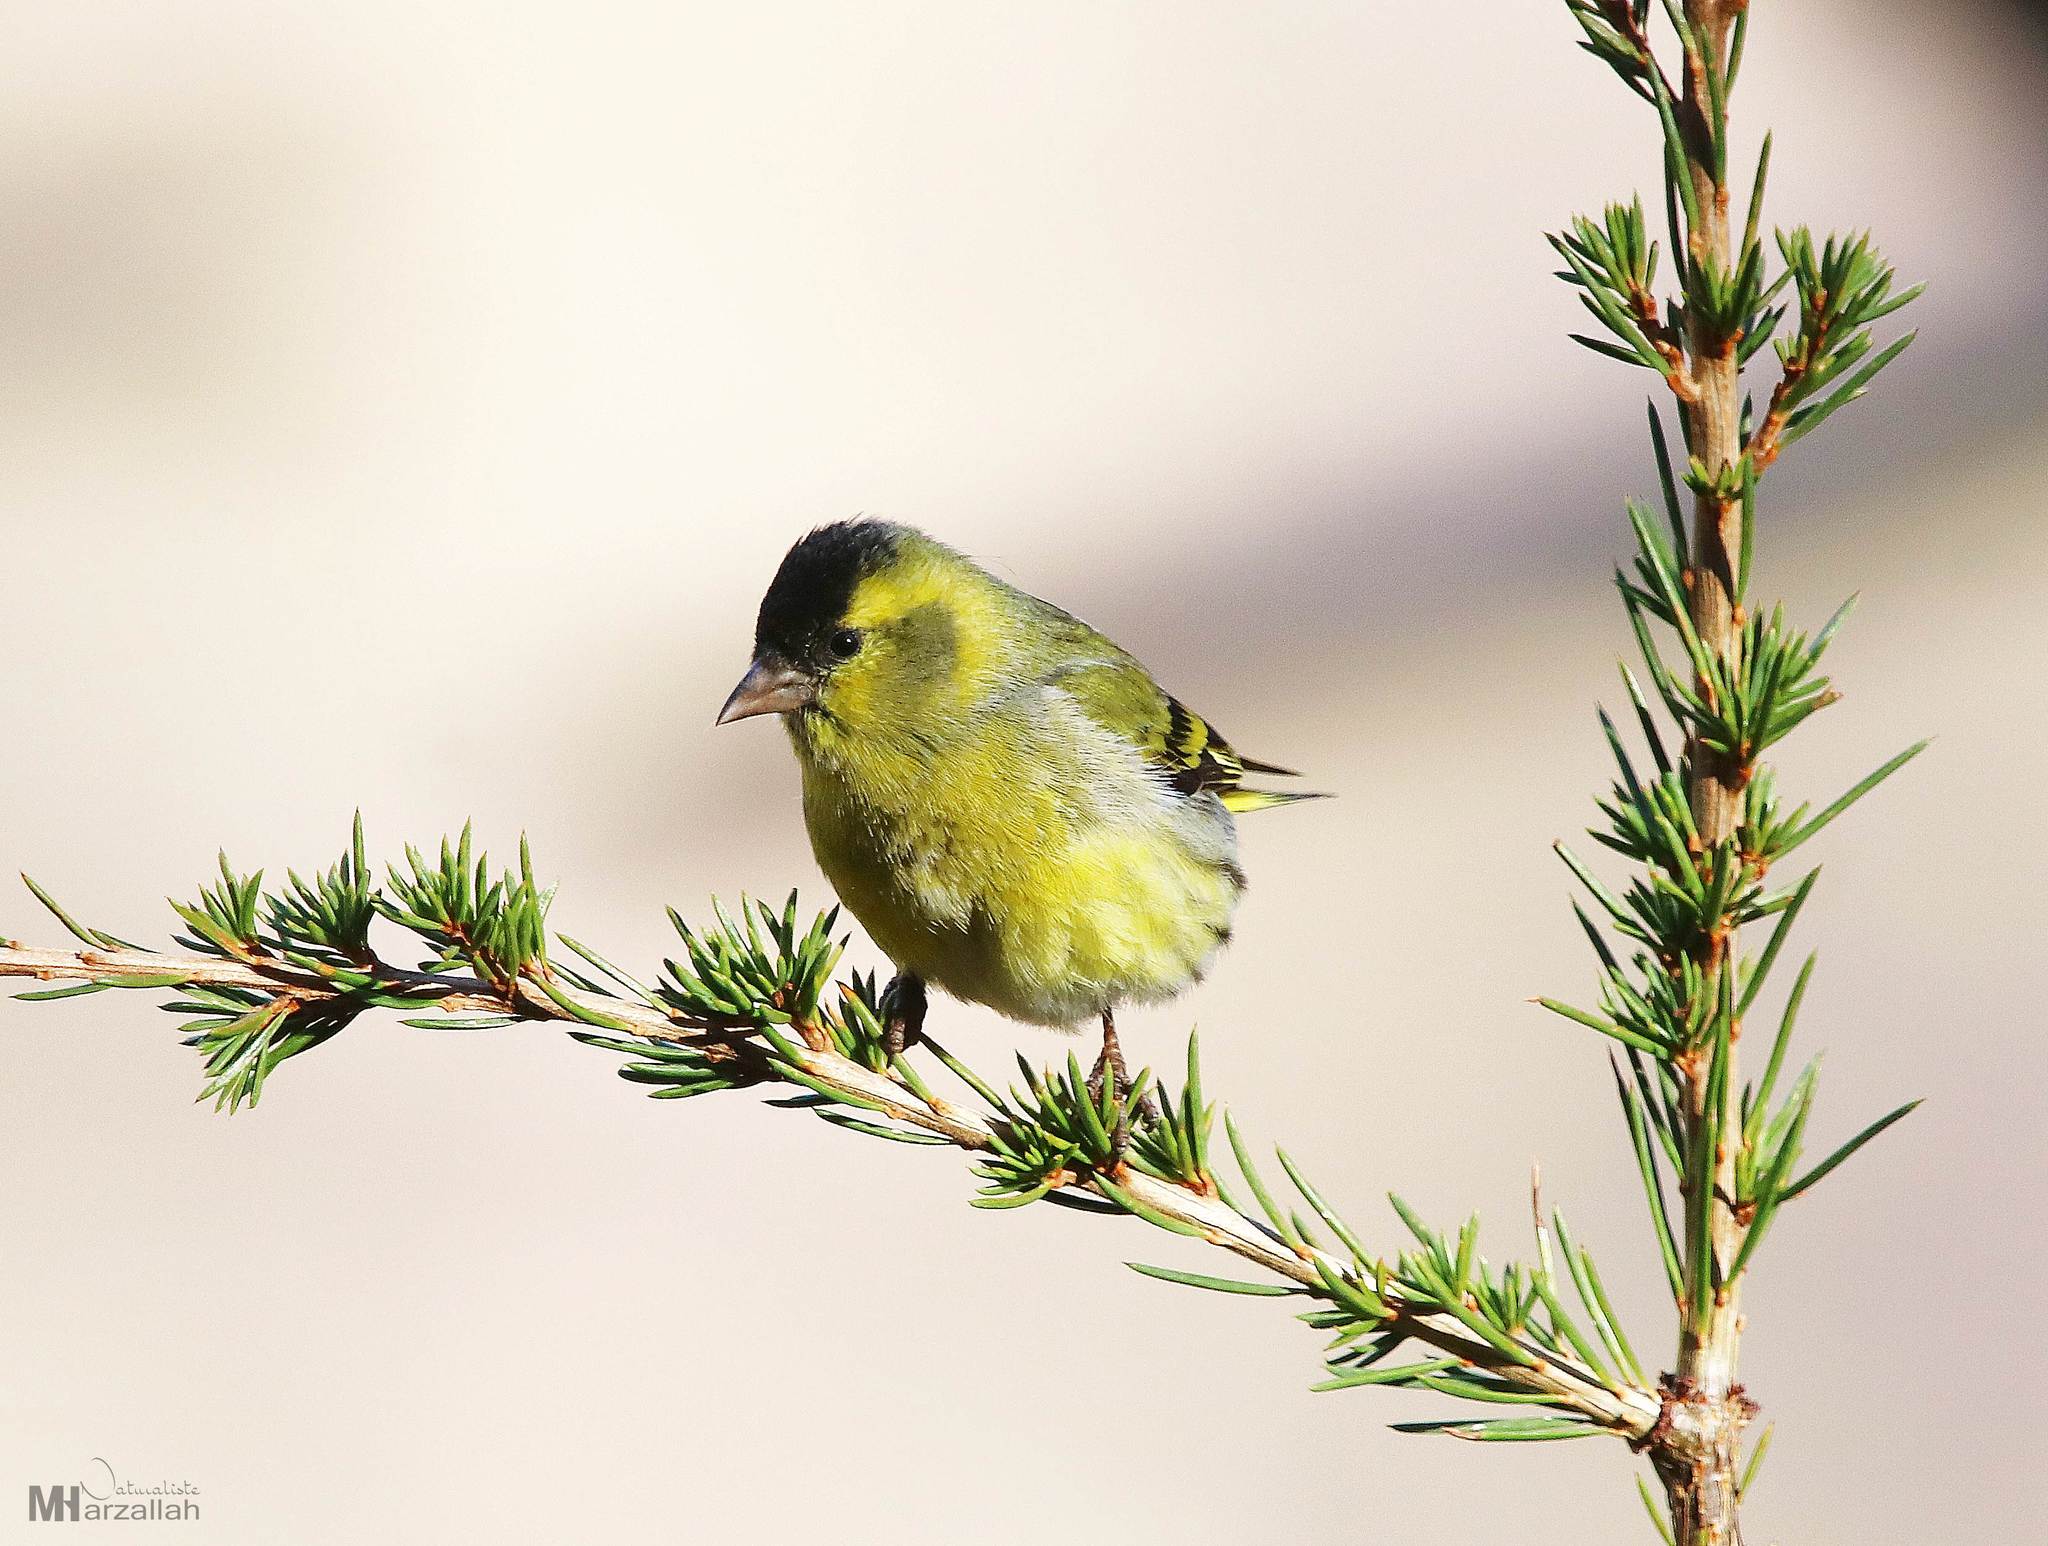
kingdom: Animalia
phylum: Chordata
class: Aves
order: Passeriformes
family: Fringillidae
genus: Spinus
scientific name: Spinus spinus
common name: Eurasian siskin
